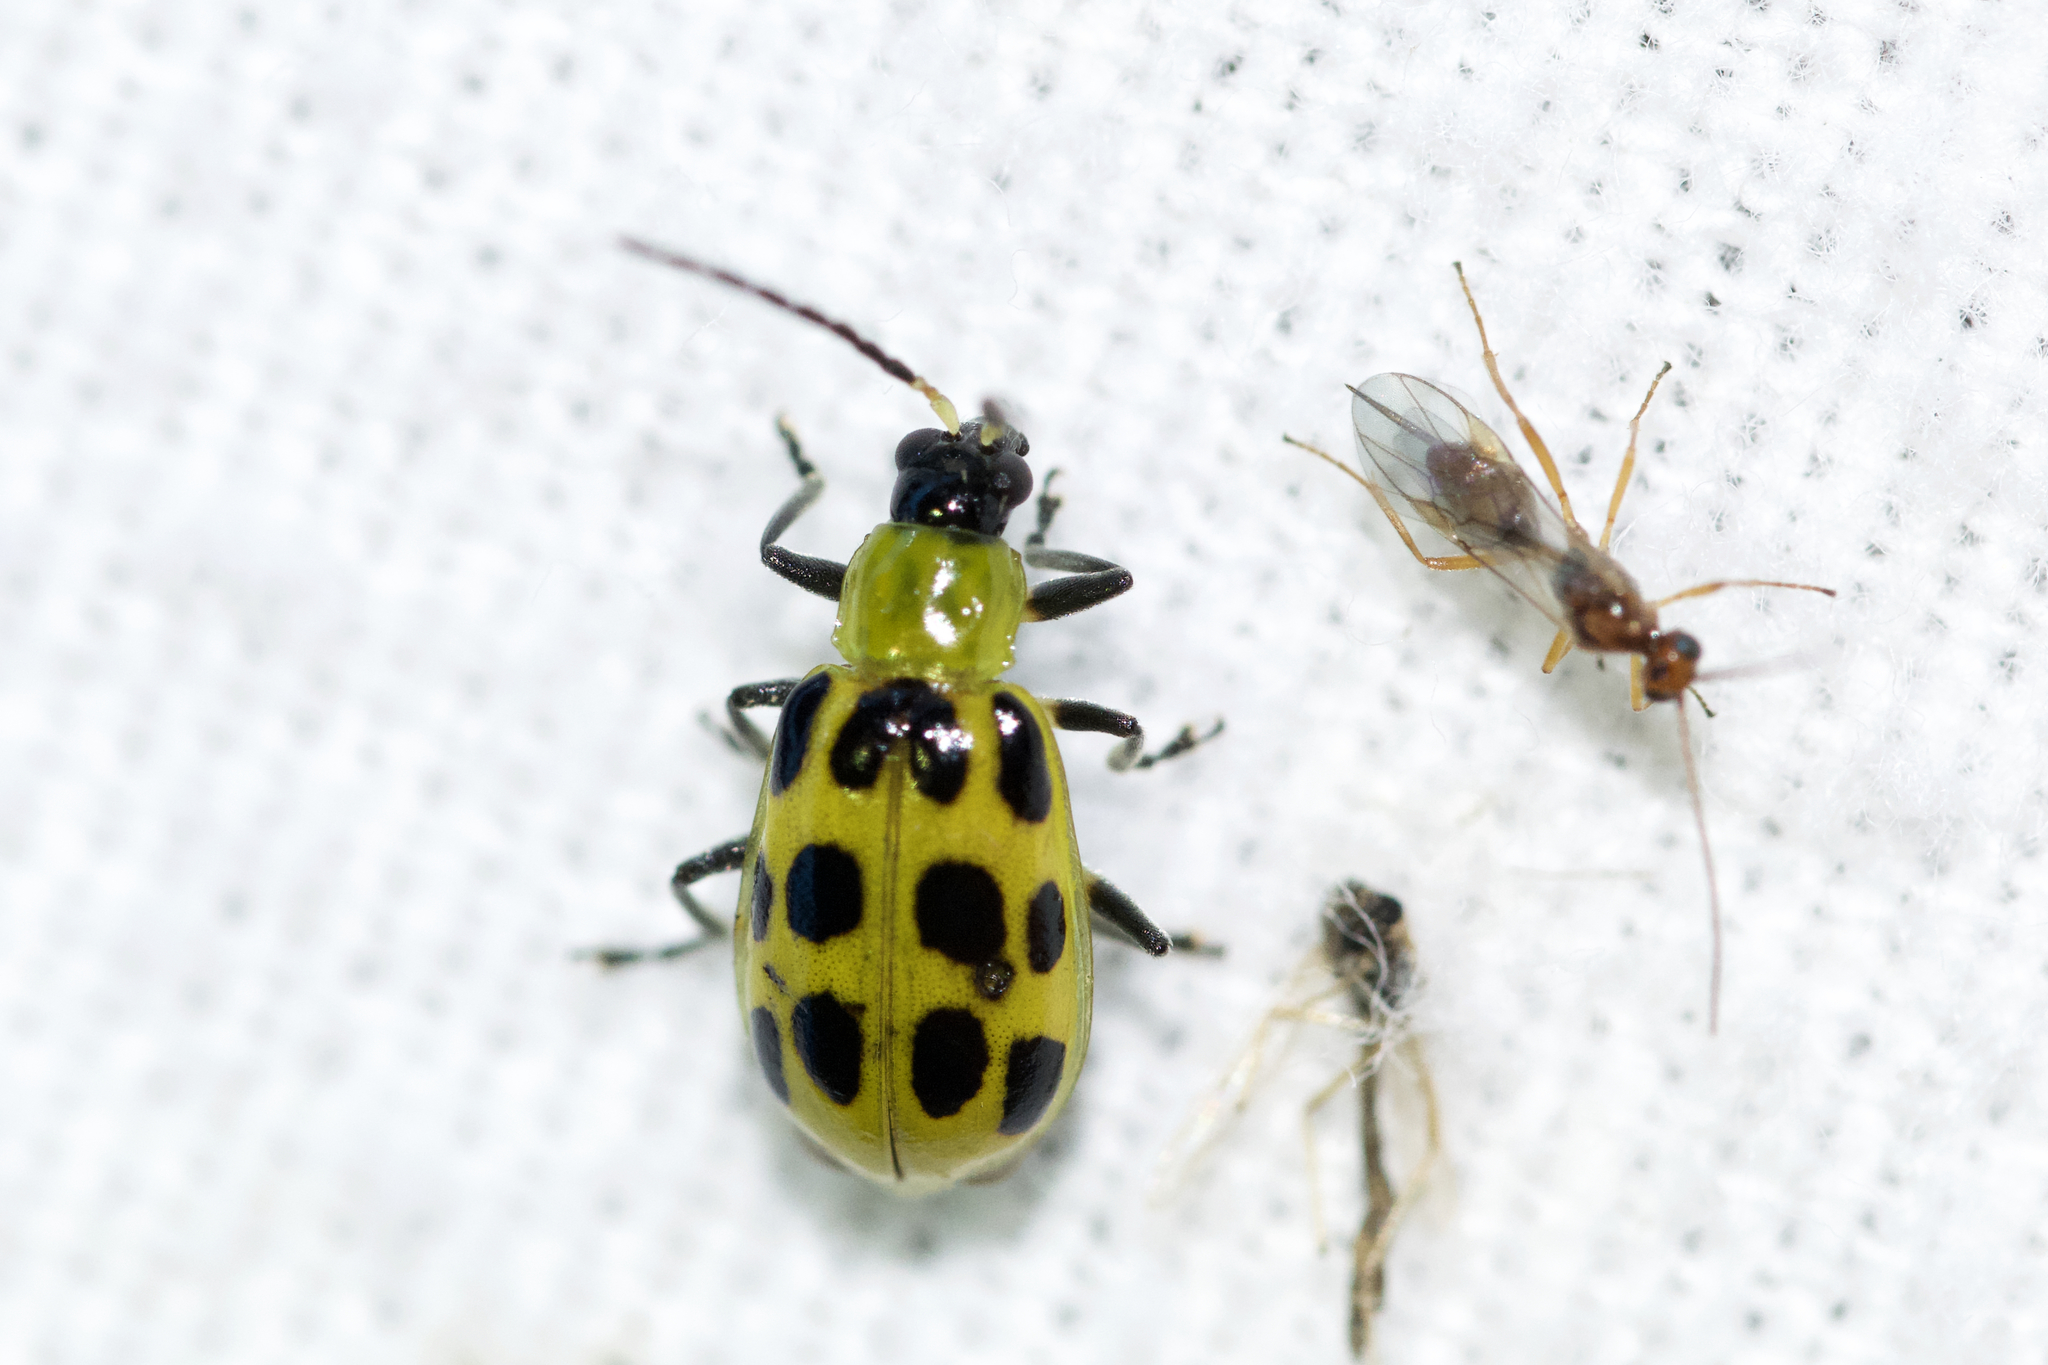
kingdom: Animalia
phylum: Arthropoda
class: Insecta
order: Coleoptera
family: Chrysomelidae
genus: Diabrotica
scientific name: Diabrotica undecimpunctata
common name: Spotted cucumber beetle
